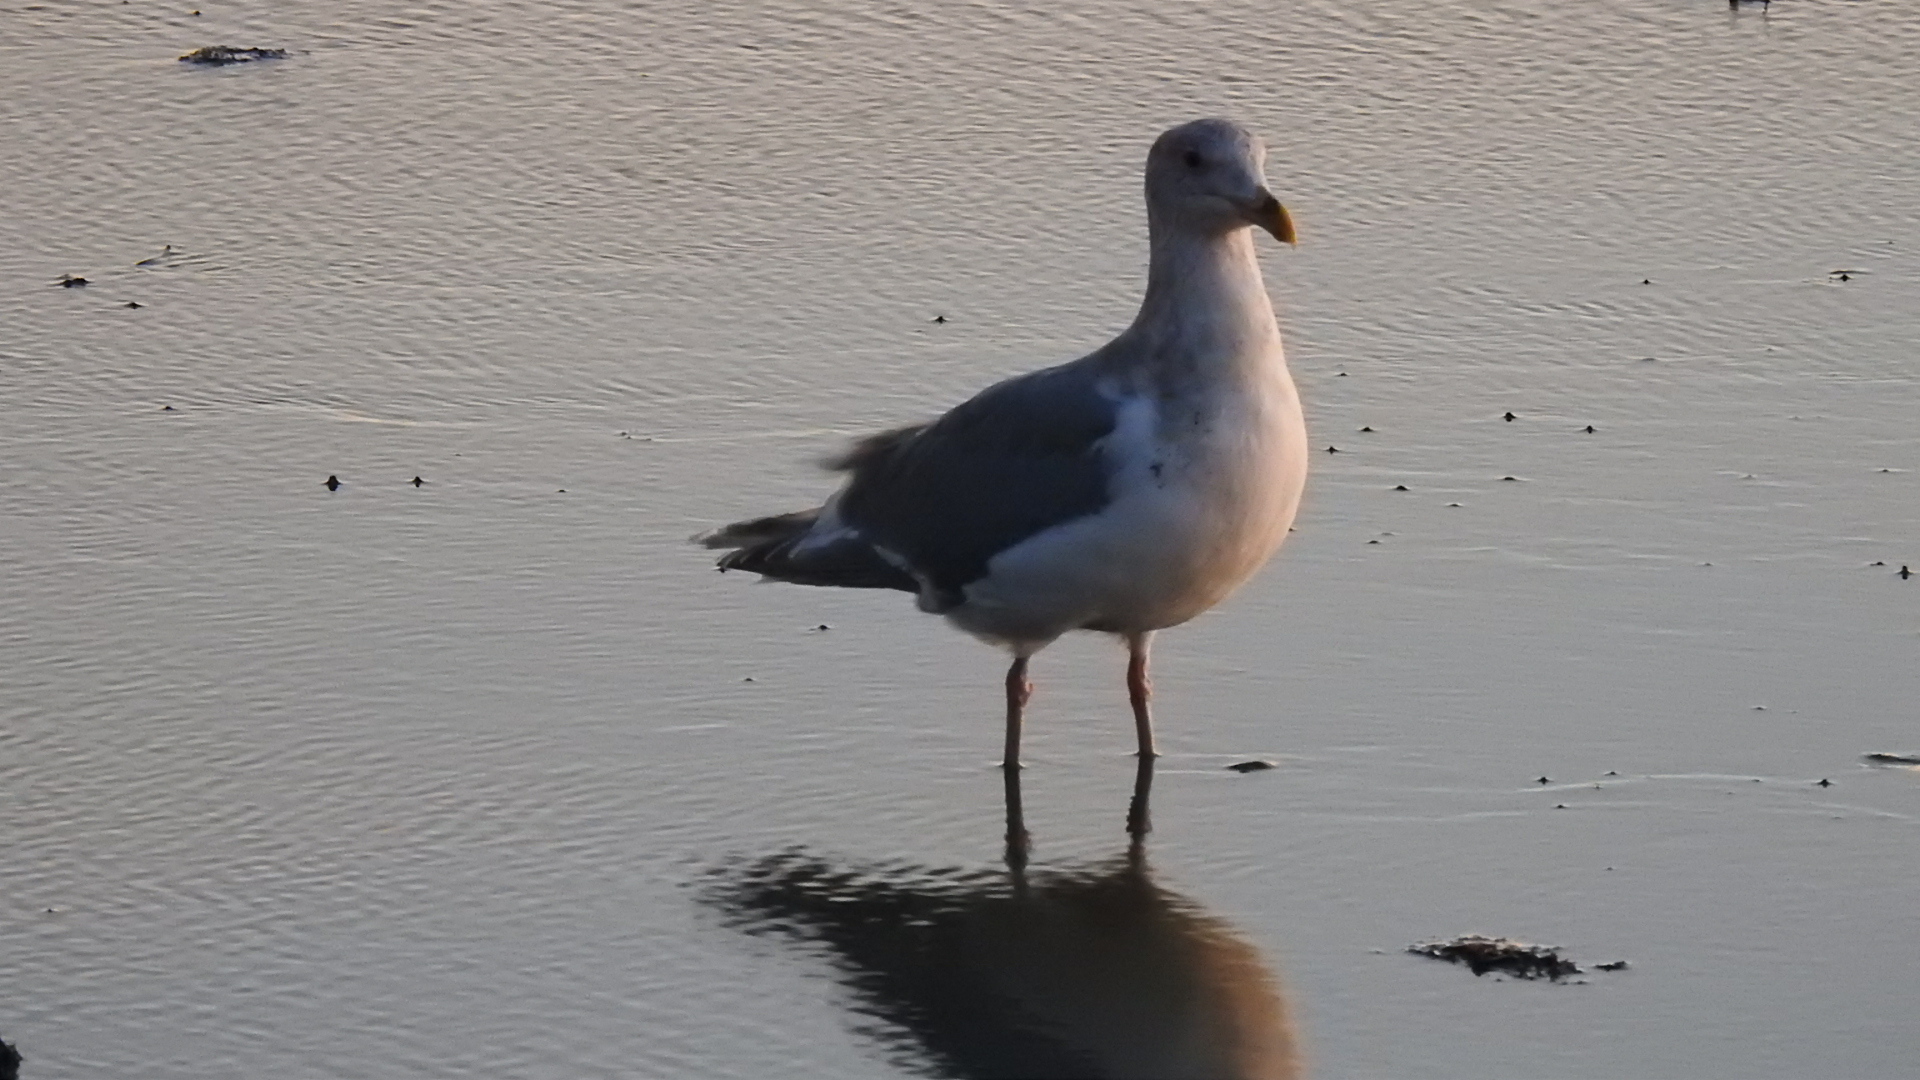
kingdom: Animalia
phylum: Chordata
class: Aves
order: Charadriiformes
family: Laridae
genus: Larus
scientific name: Larus occidentalis
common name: Western gull
